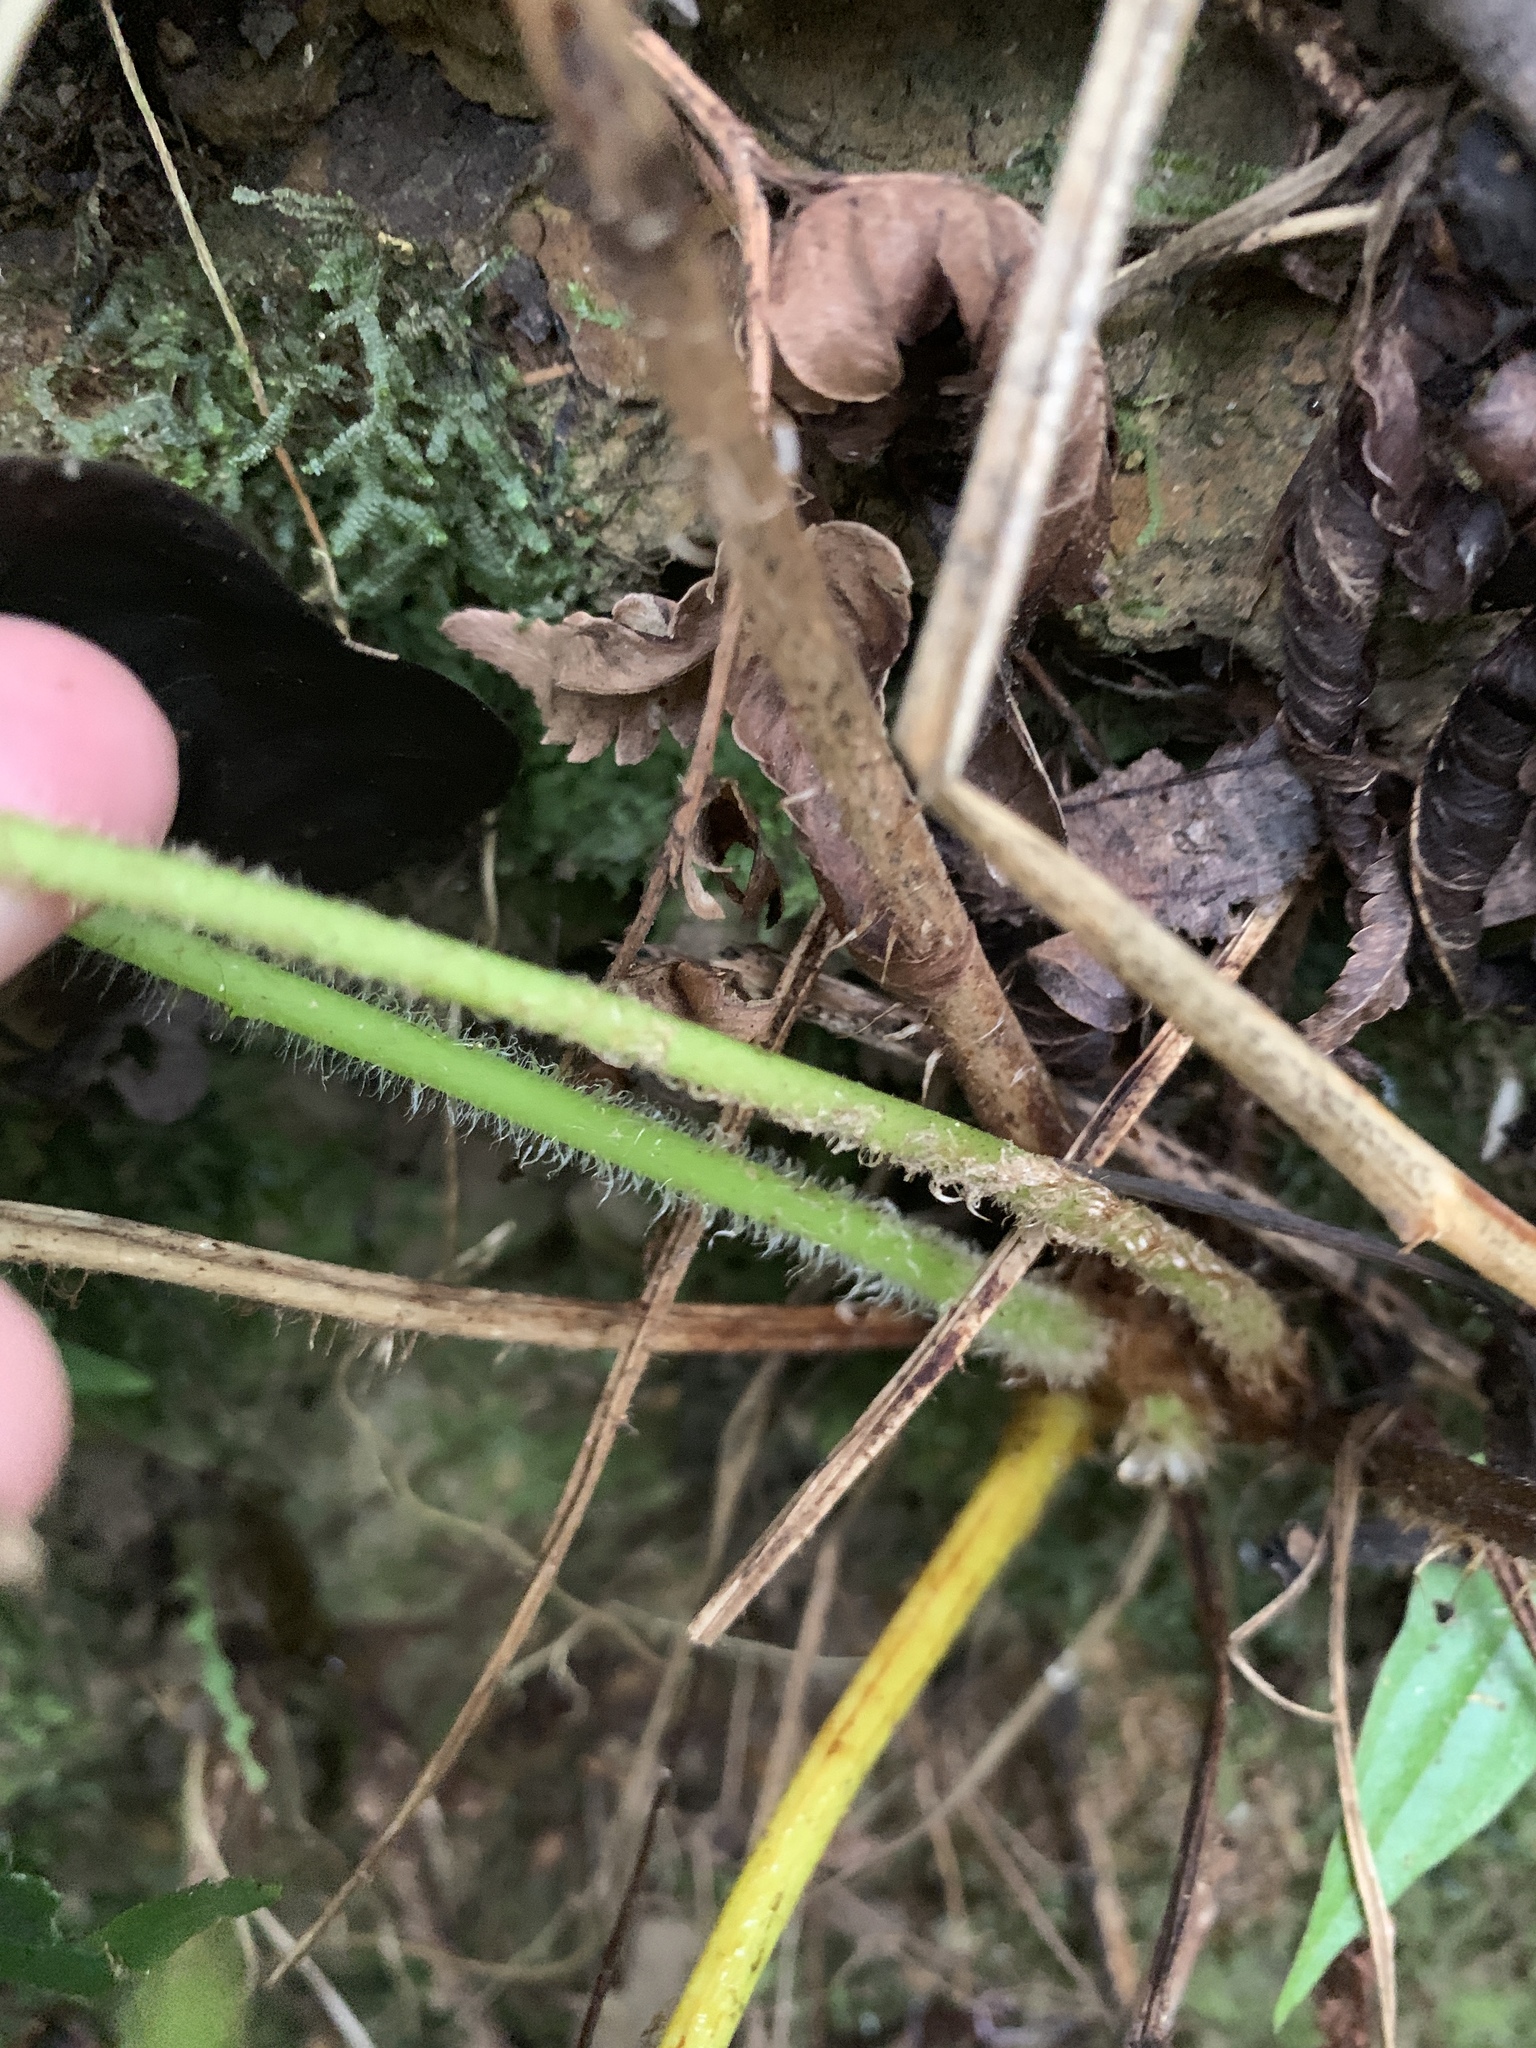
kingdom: Plantae
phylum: Tracheophyta
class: Polypodiopsida
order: Cyatheales
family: Cyatheaceae
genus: Alsophila
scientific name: Alsophila lepifera
